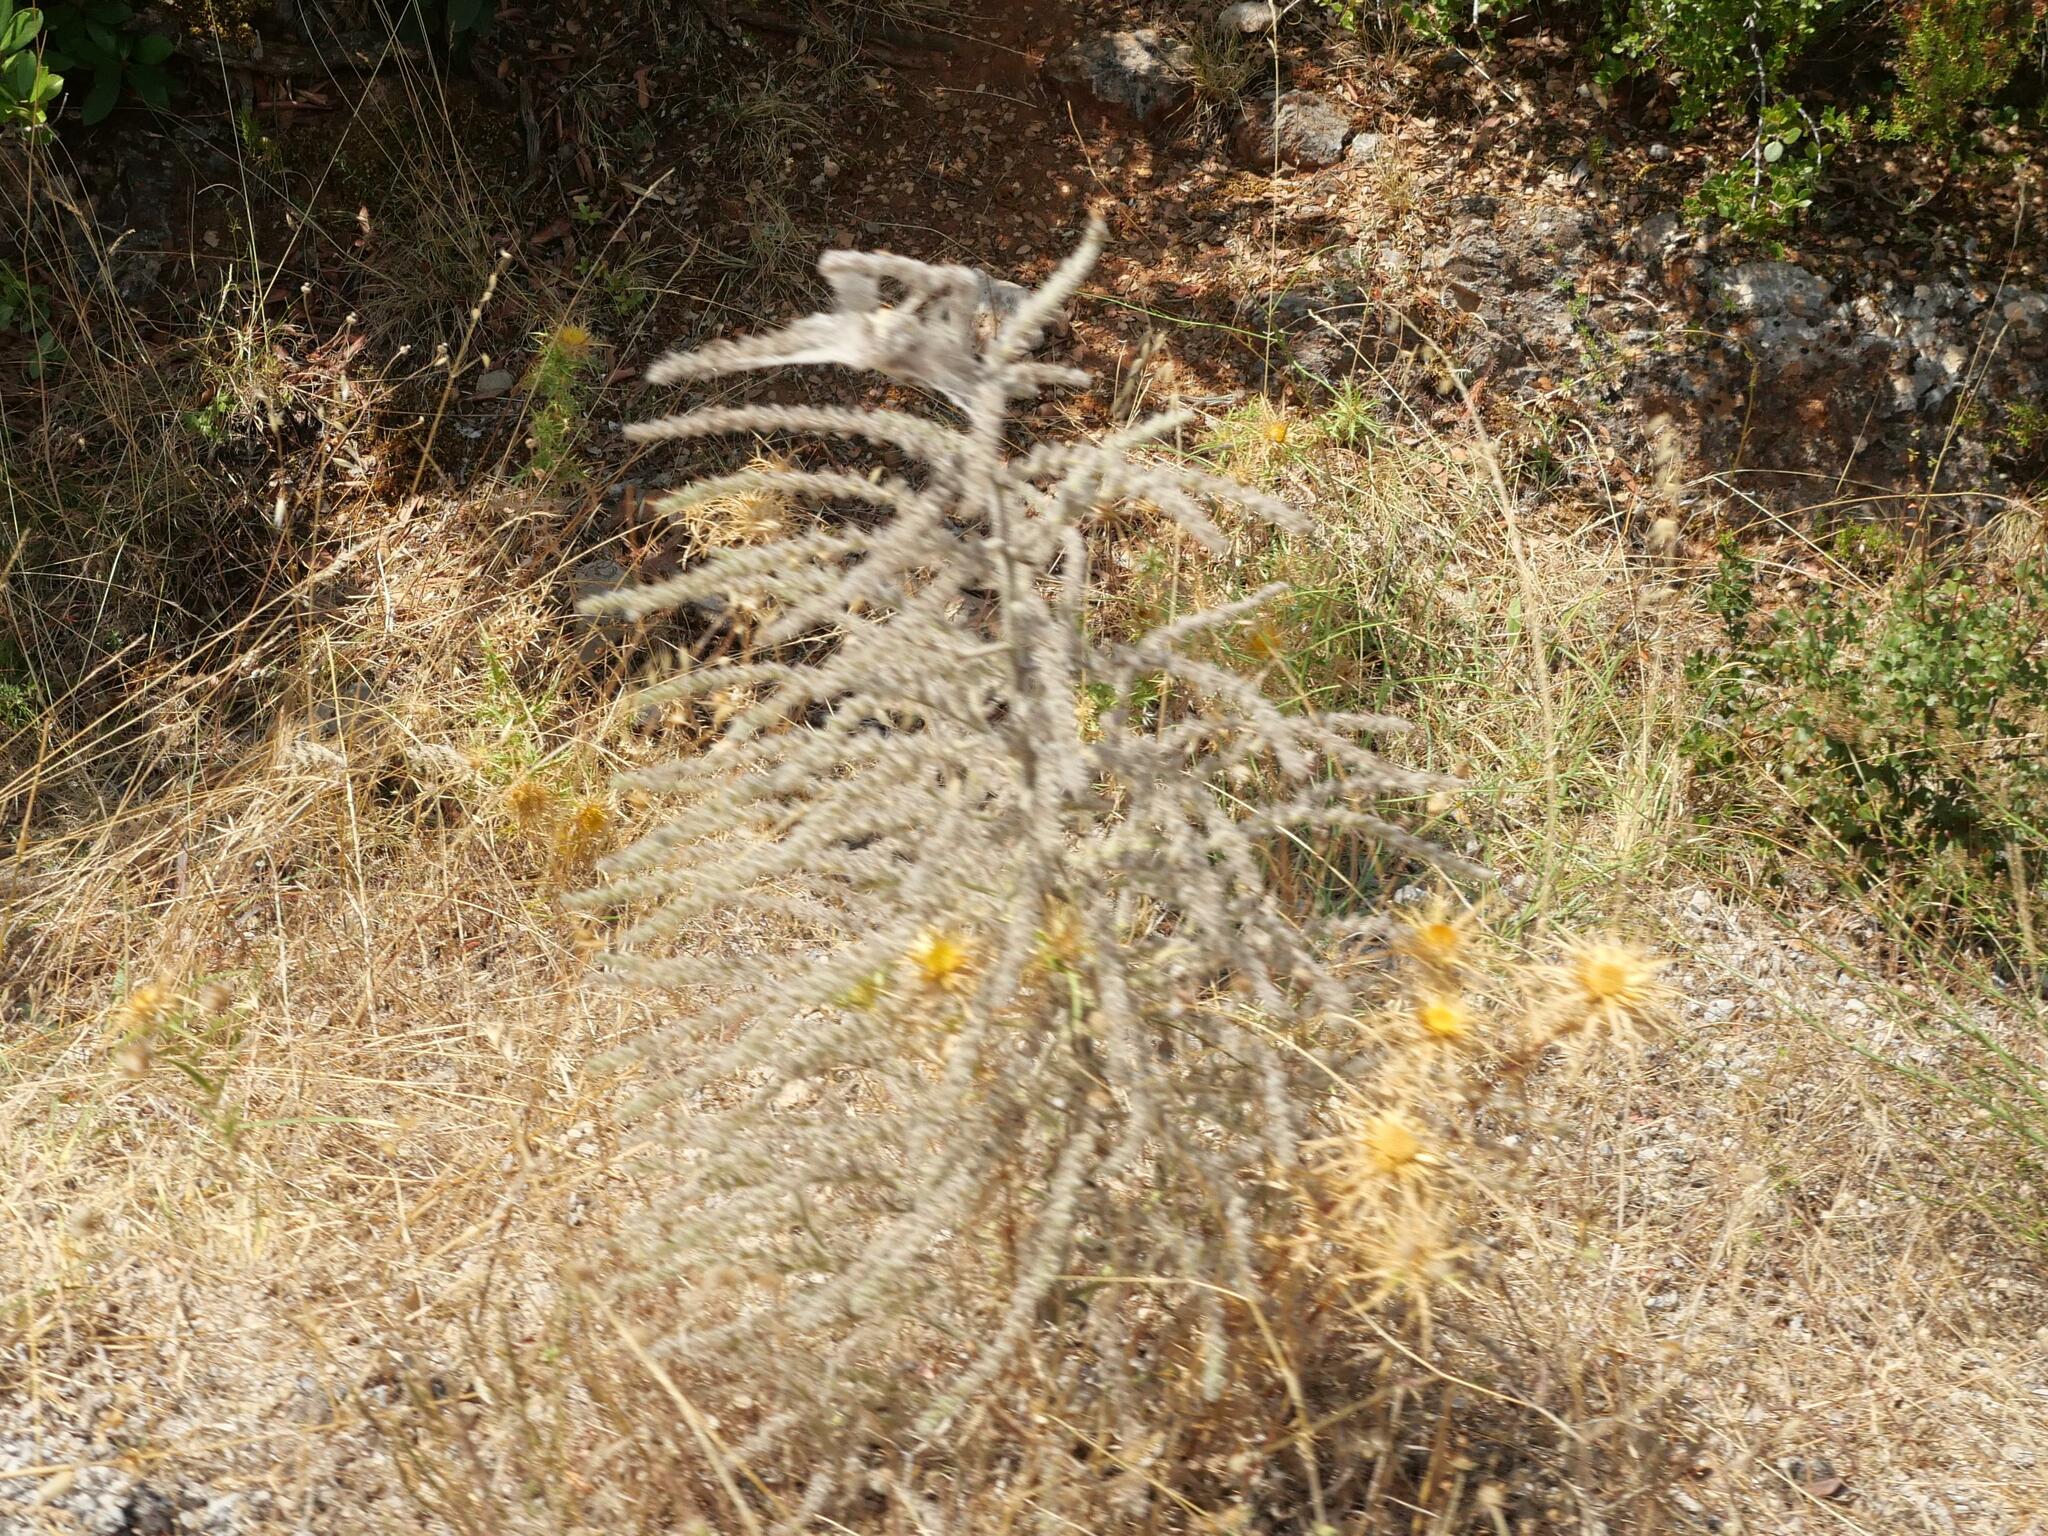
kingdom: Plantae
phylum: Tracheophyta
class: Magnoliopsida
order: Boraginales
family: Boraginaceae
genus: Echium
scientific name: Echium italicum
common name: Italian viper's bugloss
